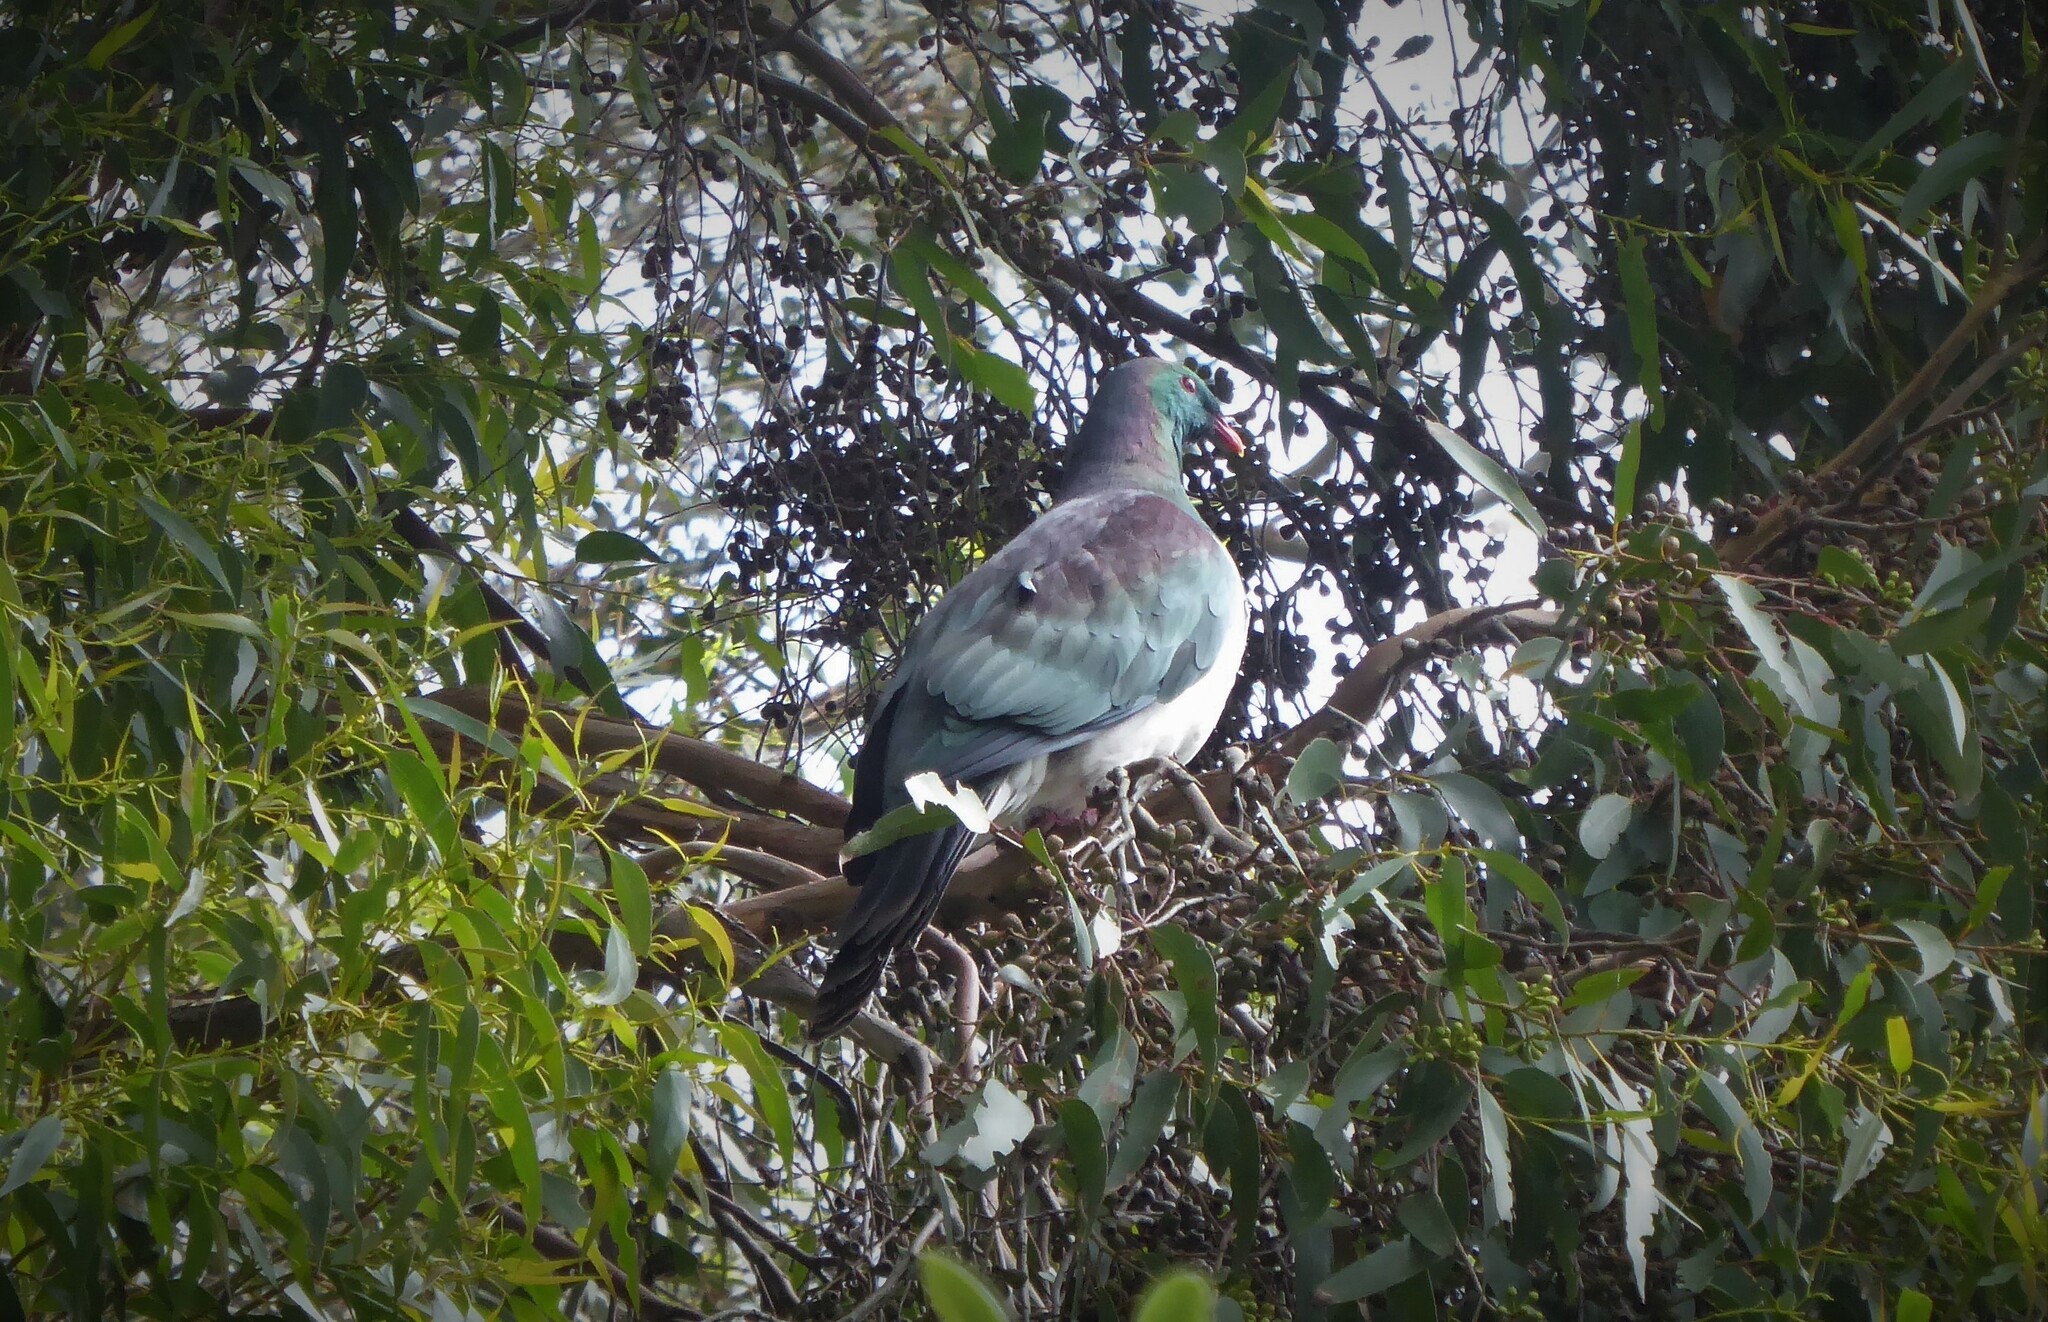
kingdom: Animalia
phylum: Chordata
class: Aves
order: Columbiformes
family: Columbidae
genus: Hemiphaga
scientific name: Hemiphaga novaeseelandiae
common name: New zealand pigeon
